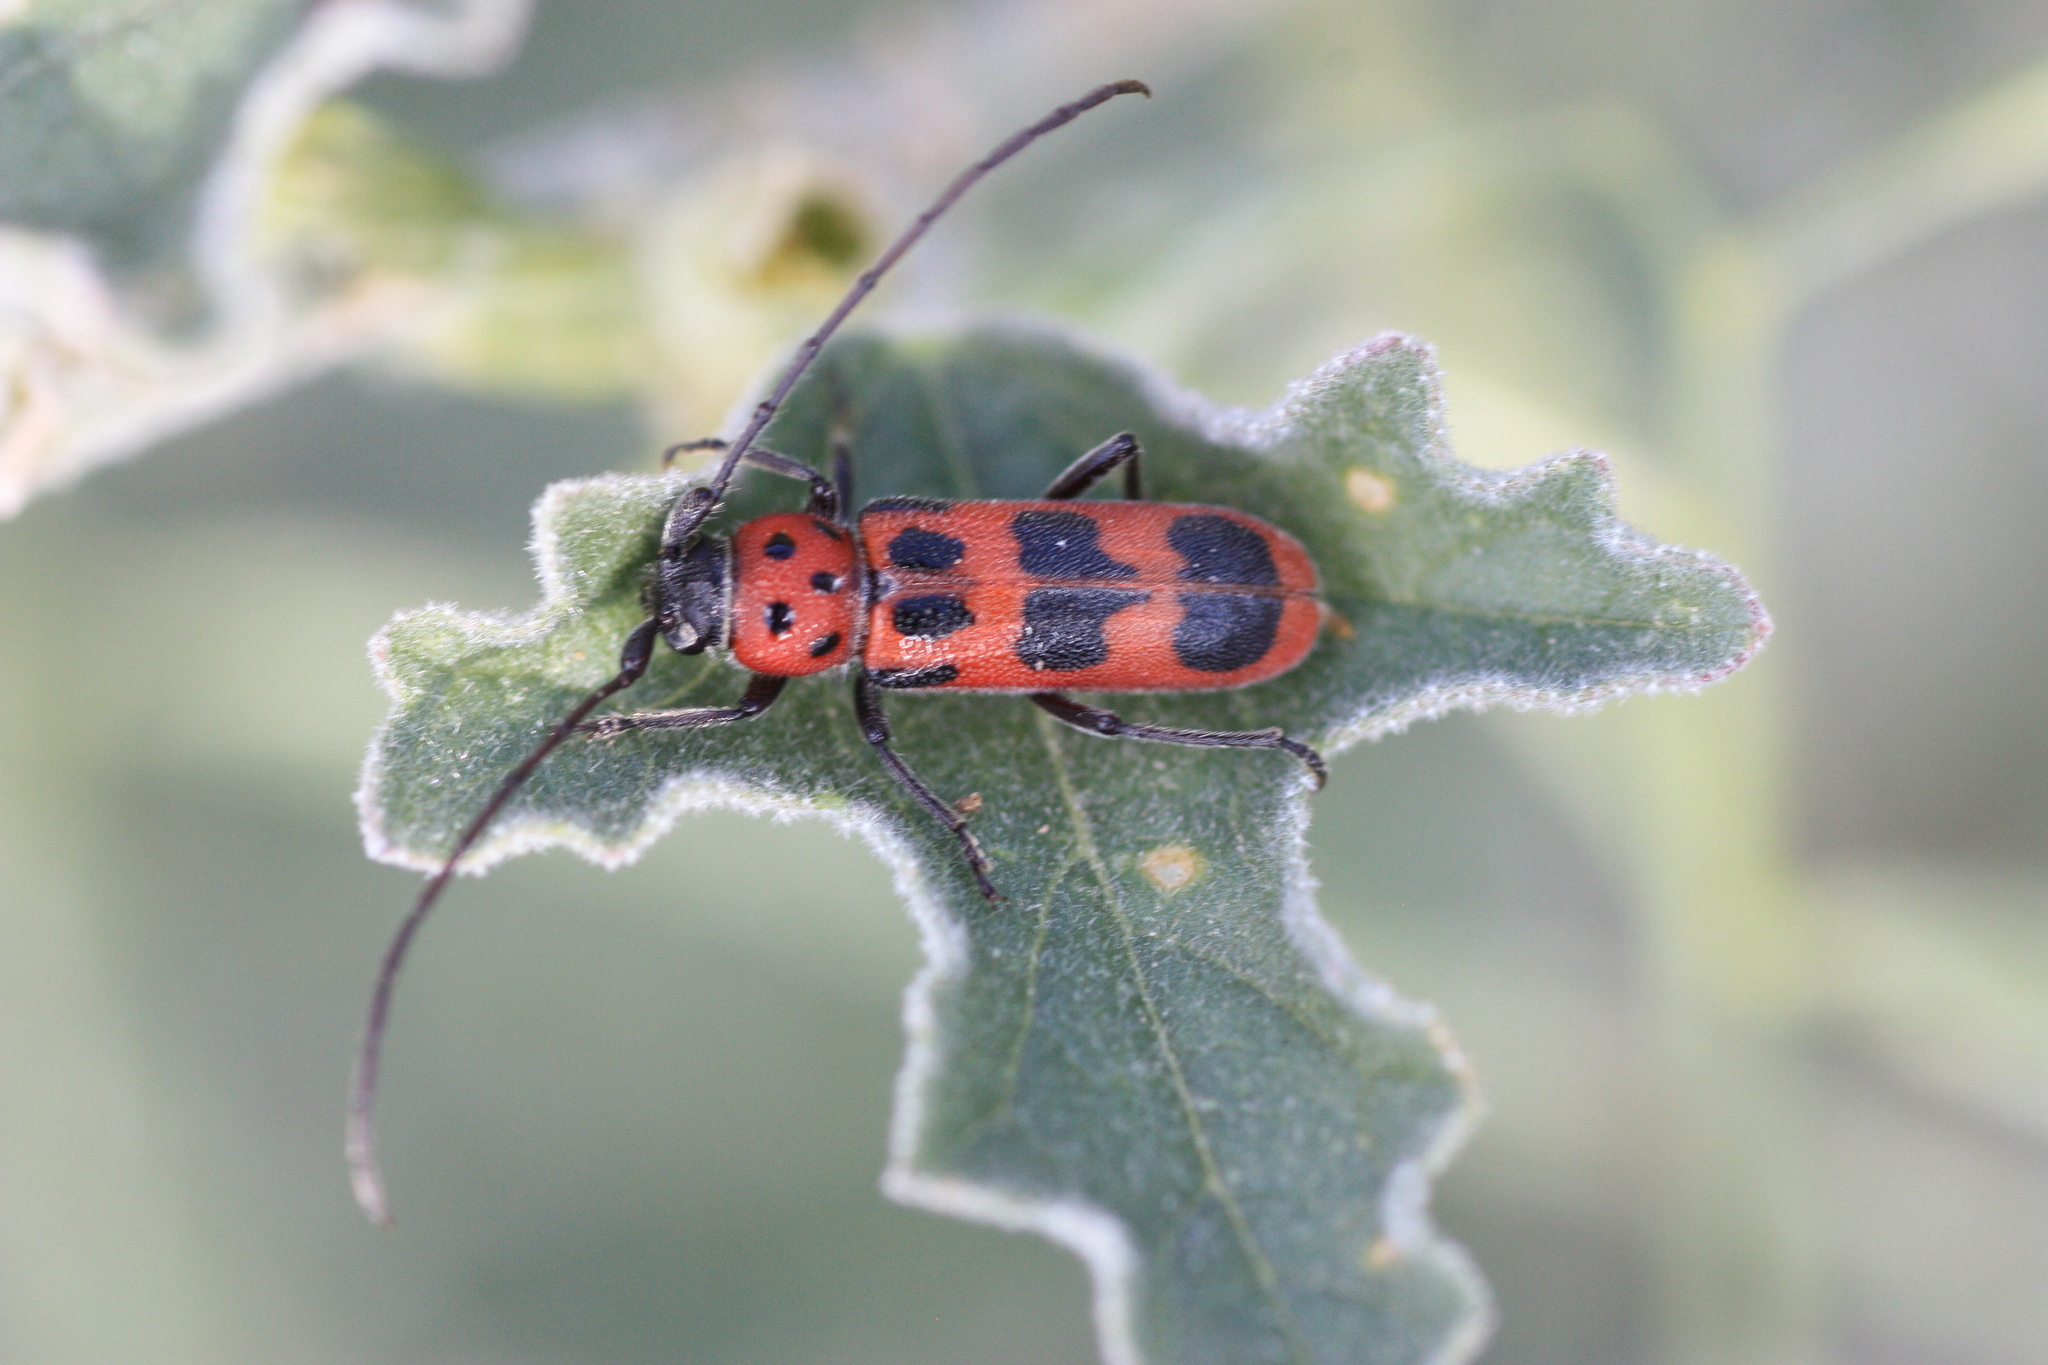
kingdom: Animalia
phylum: Arthropoda
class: Insecta
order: Coleoptera
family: Cerambycidae
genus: Tylosis
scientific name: Tylosis maculatus
